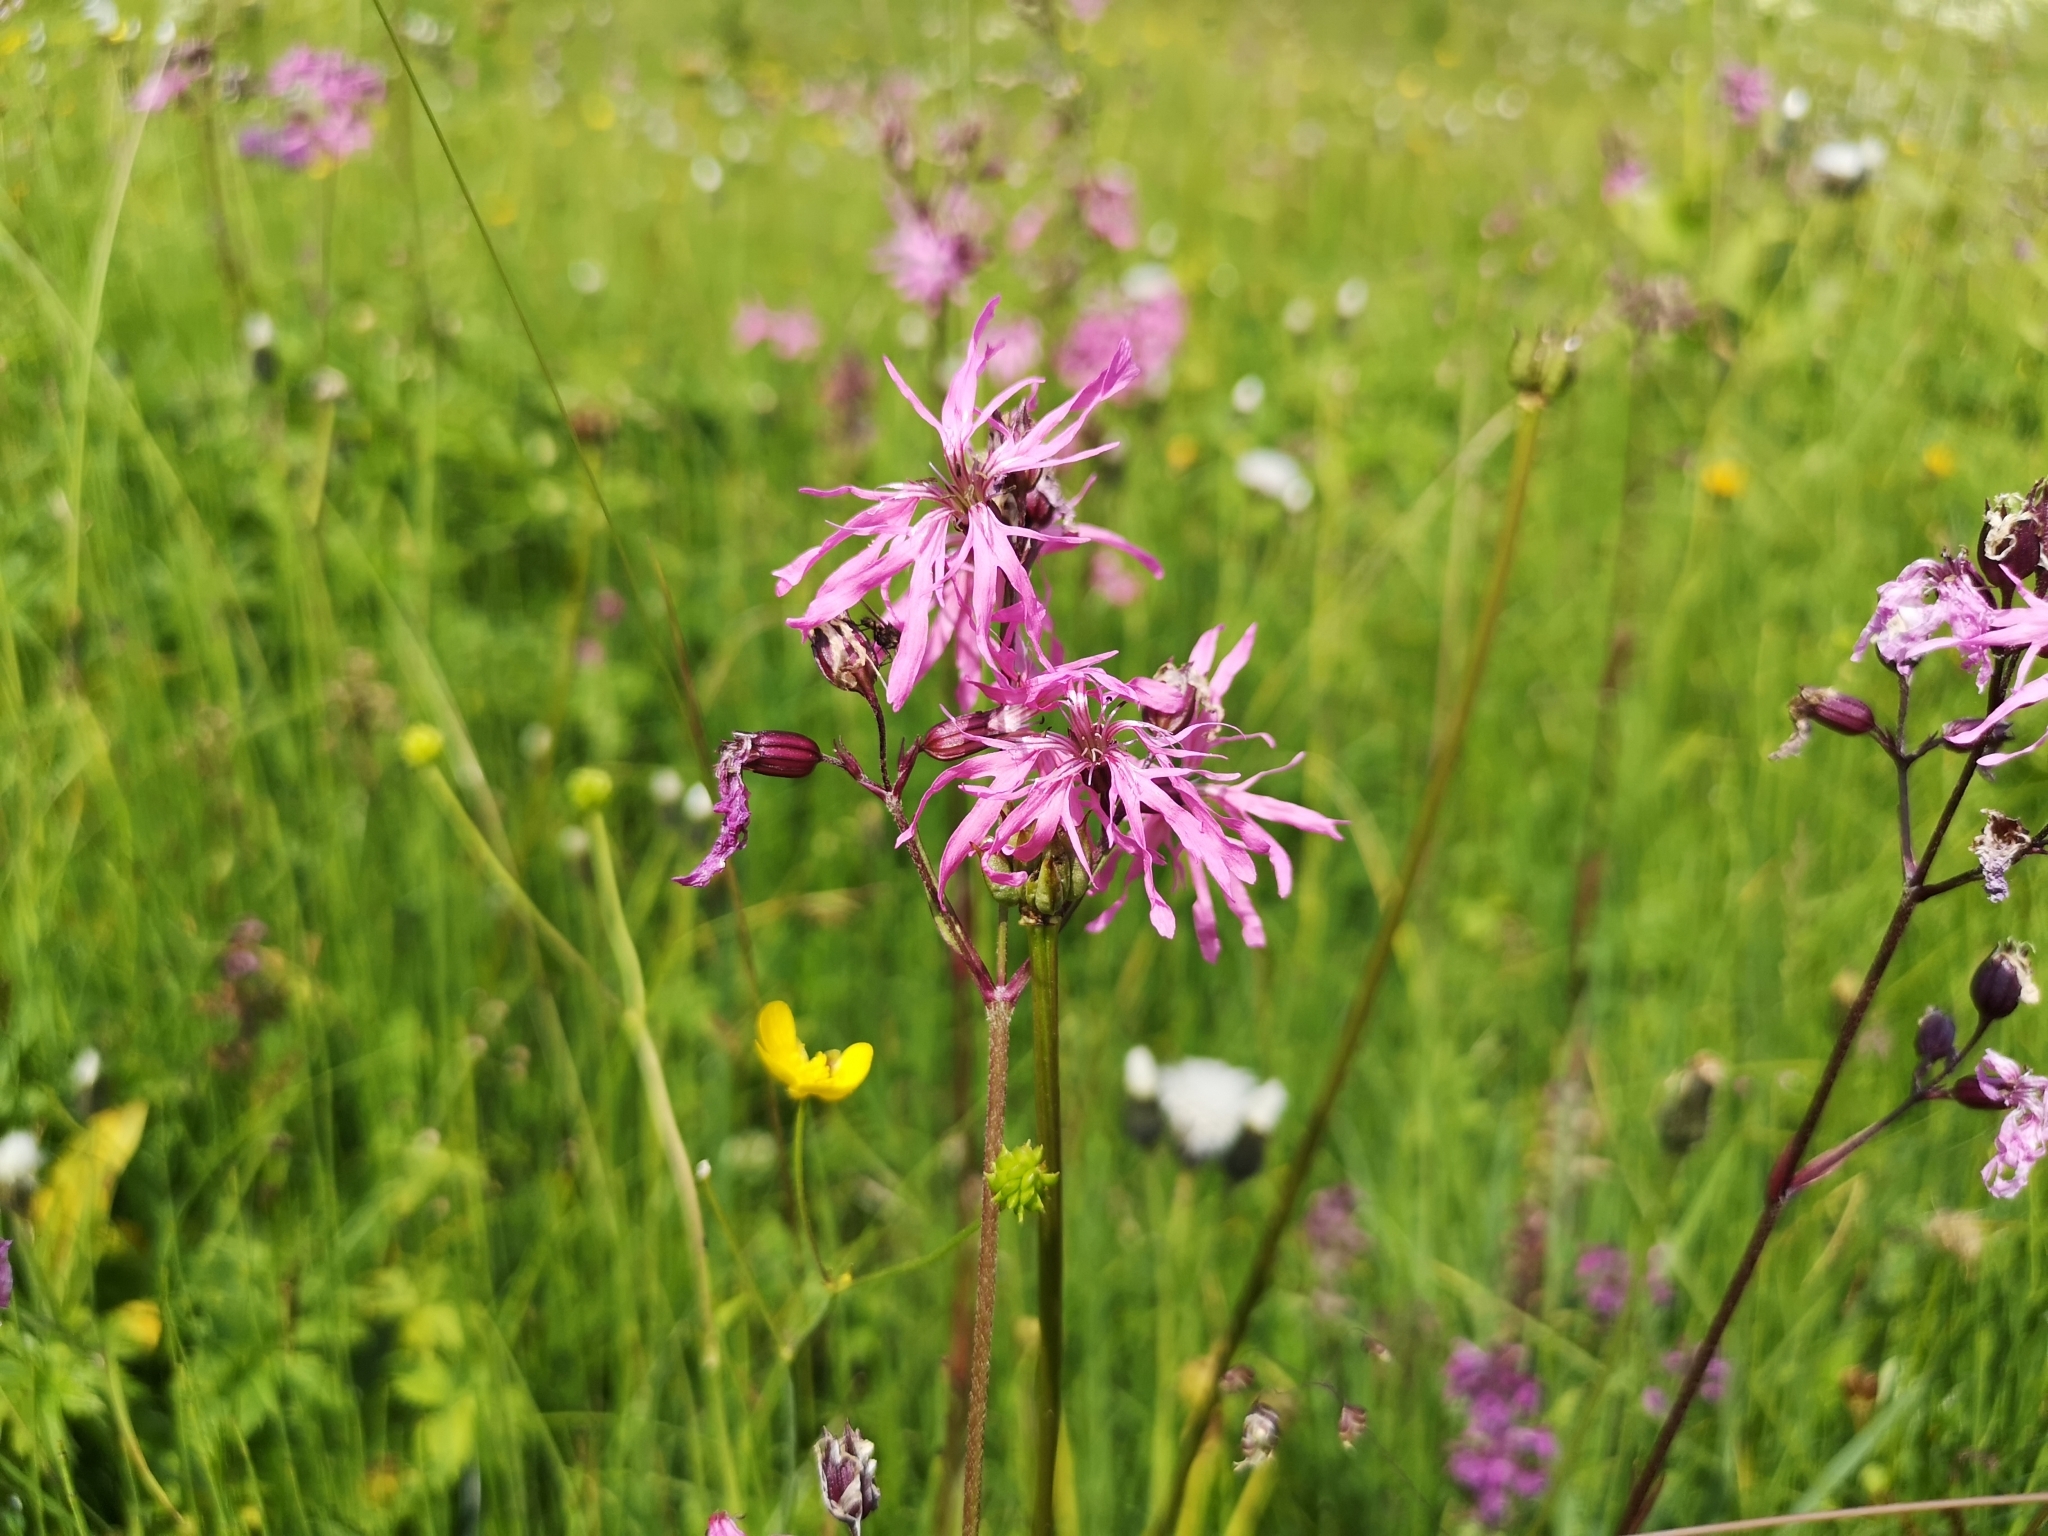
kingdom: Plantae
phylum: Tracheophyta
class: Magnoliopsida
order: Caryophyllales
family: Caryophyllaceae
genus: Silene
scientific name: Silene flos-cuculi
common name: Ragged-robin
